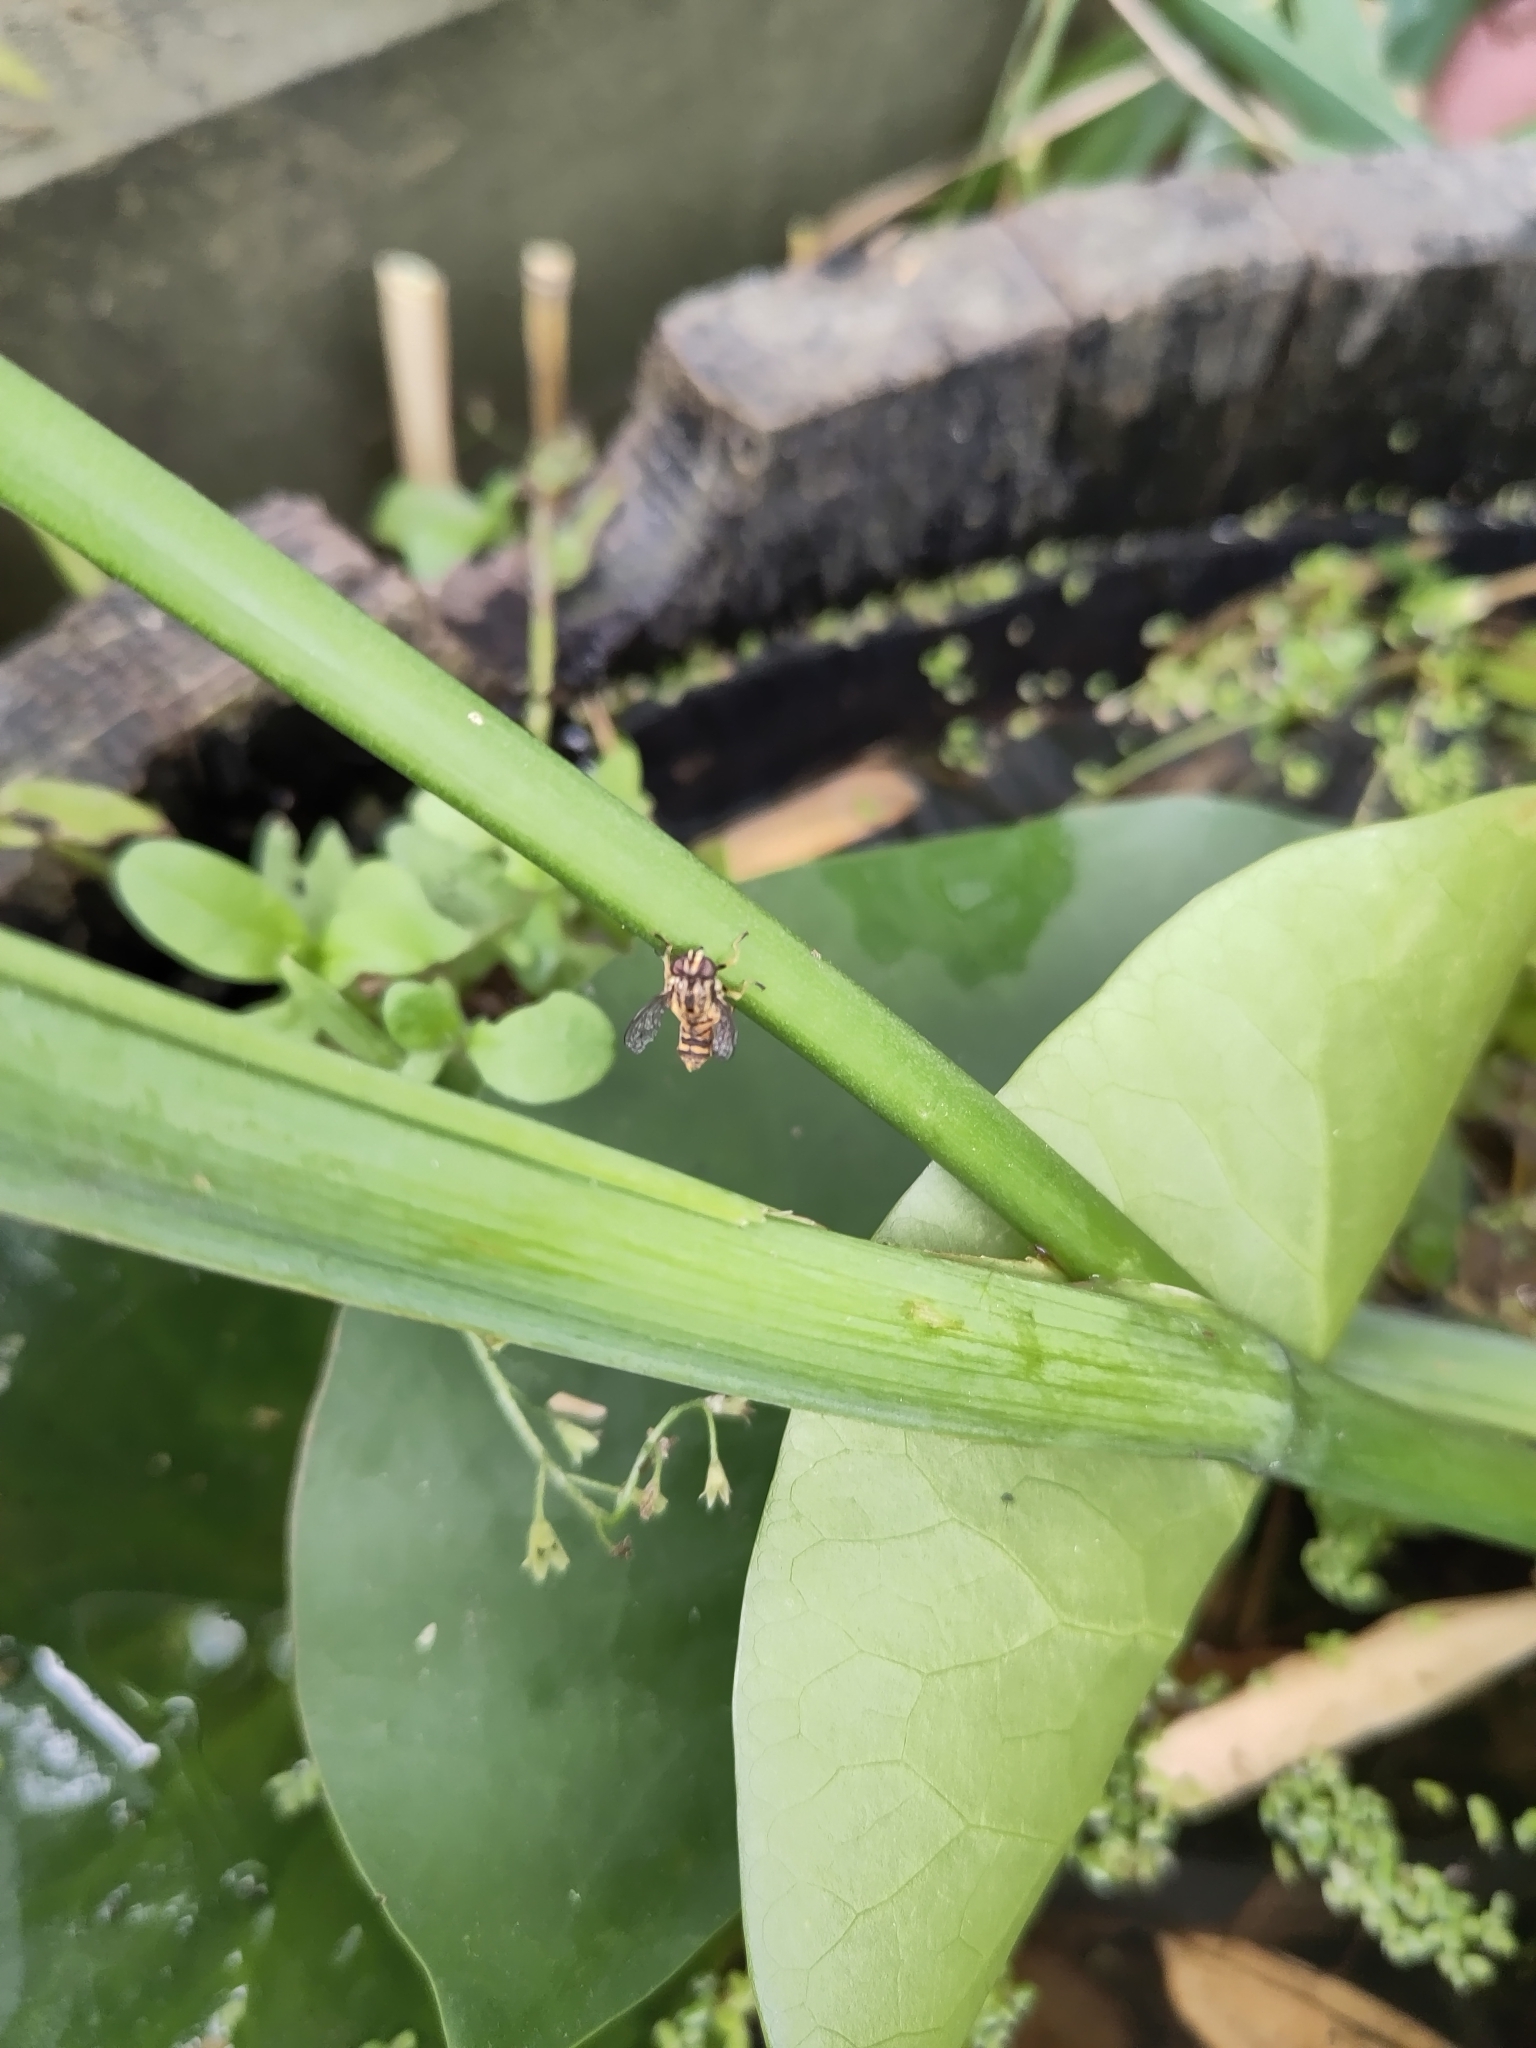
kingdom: Animalia
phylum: Arthropoda
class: Insecta
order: Diptera
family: Syrphidae
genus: Helophilus
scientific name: Helophilus
